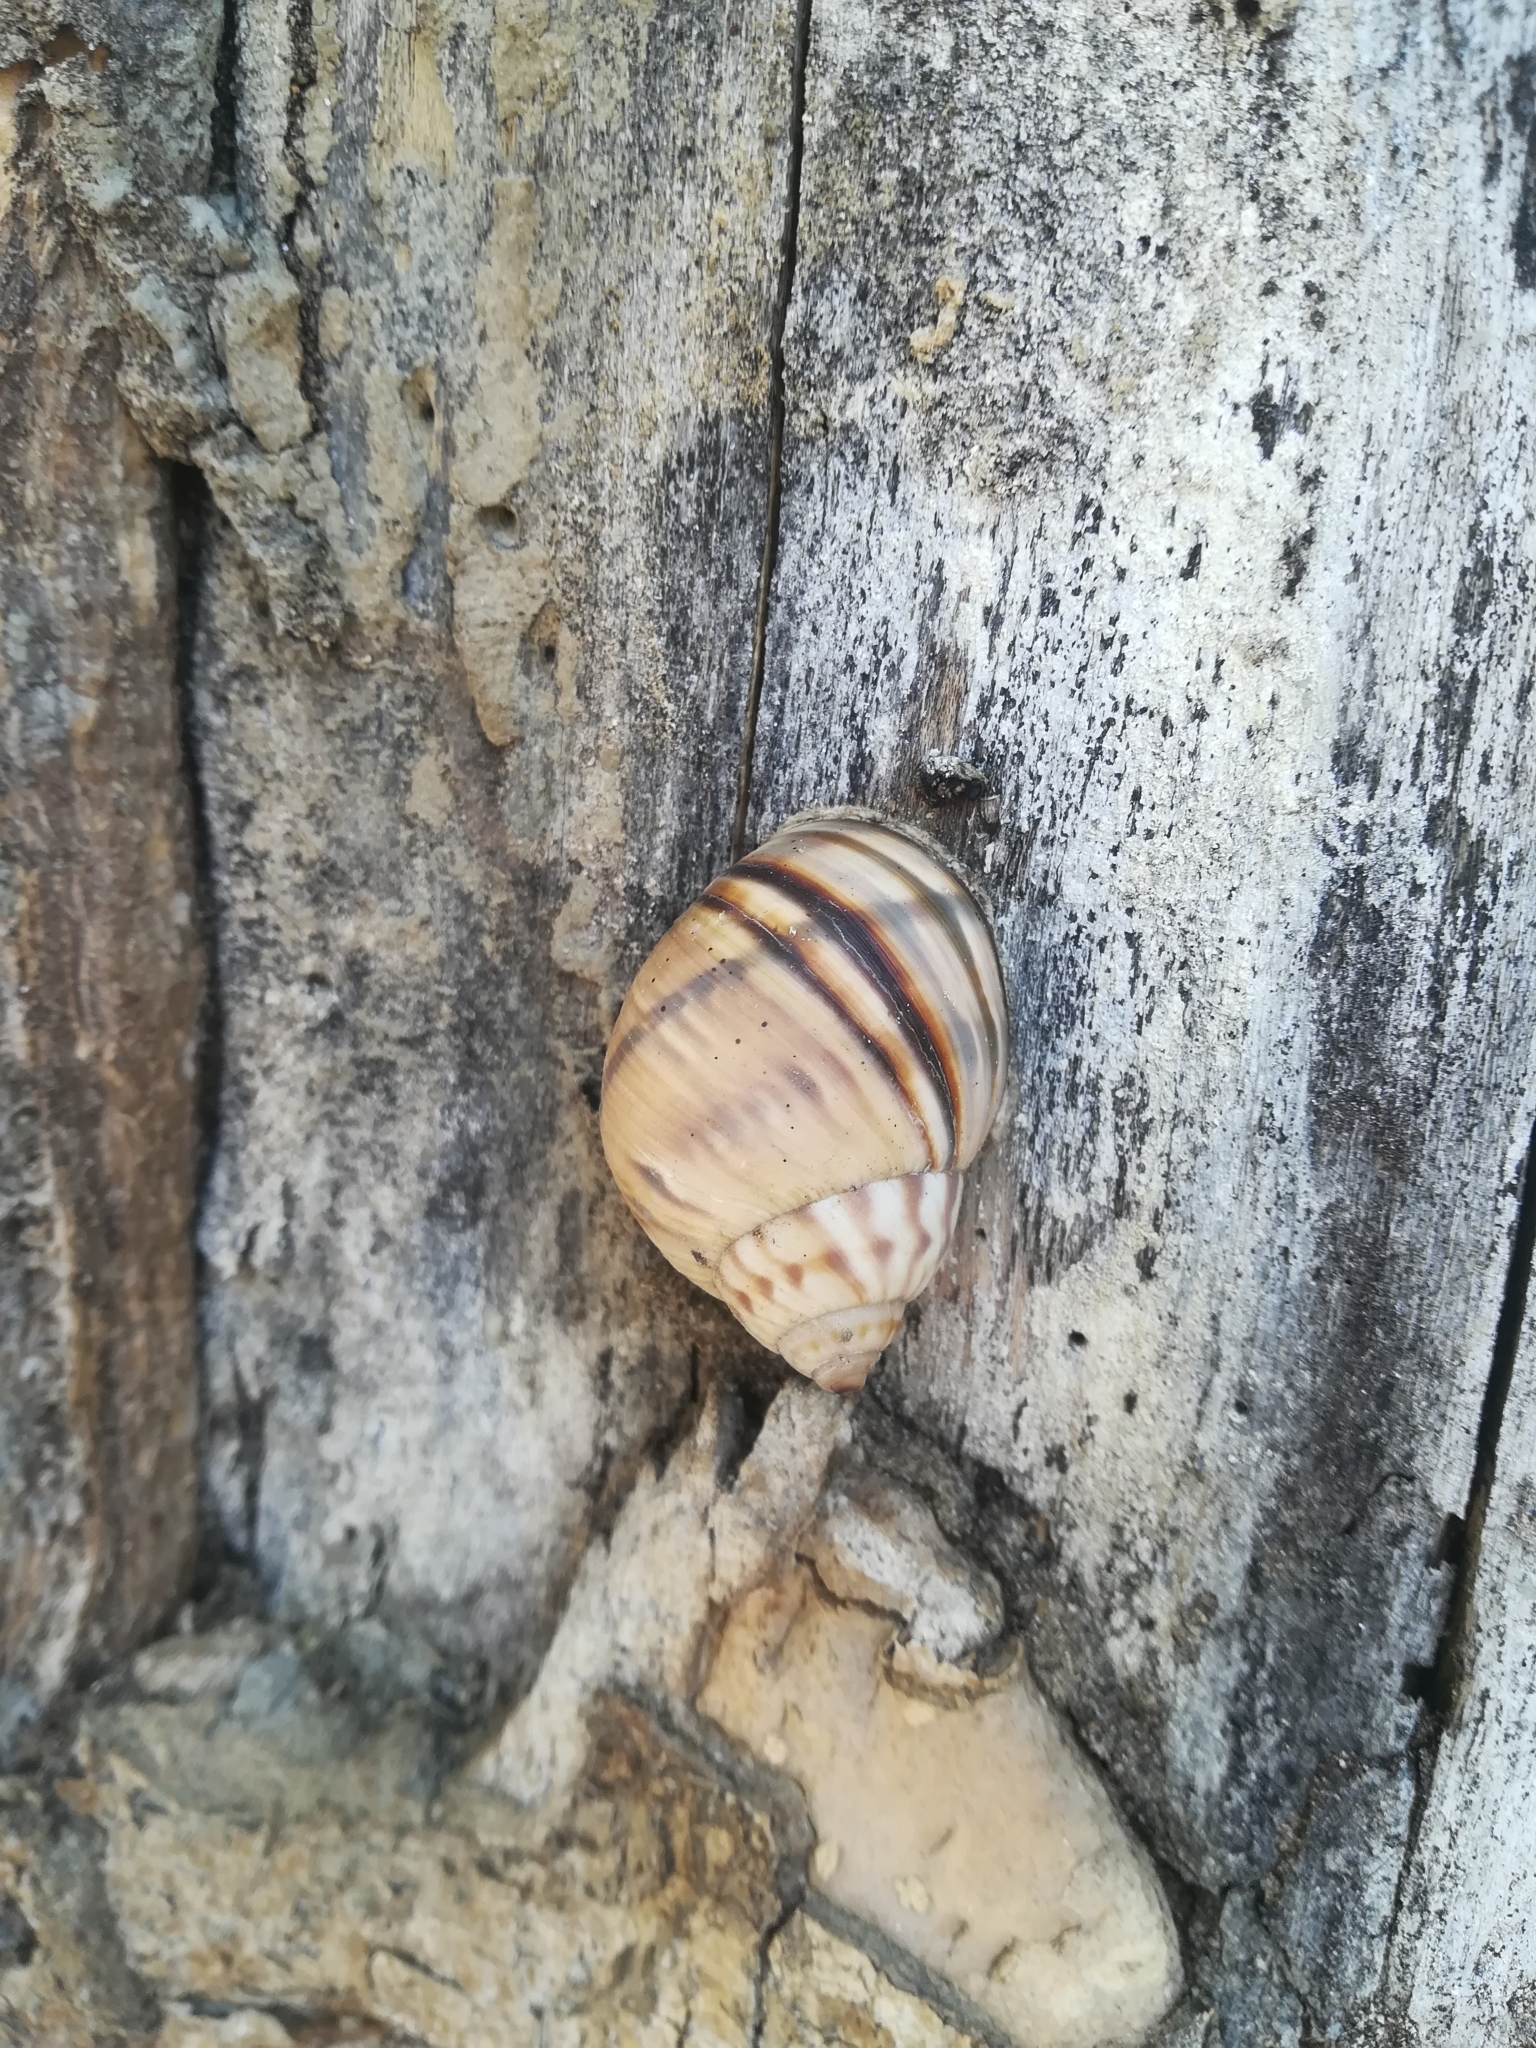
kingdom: Animalia
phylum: Mollusca
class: Gastropoda
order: Stylommatophora
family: Orthalicidae
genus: Orthalicus
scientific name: Orthalicus undatus
